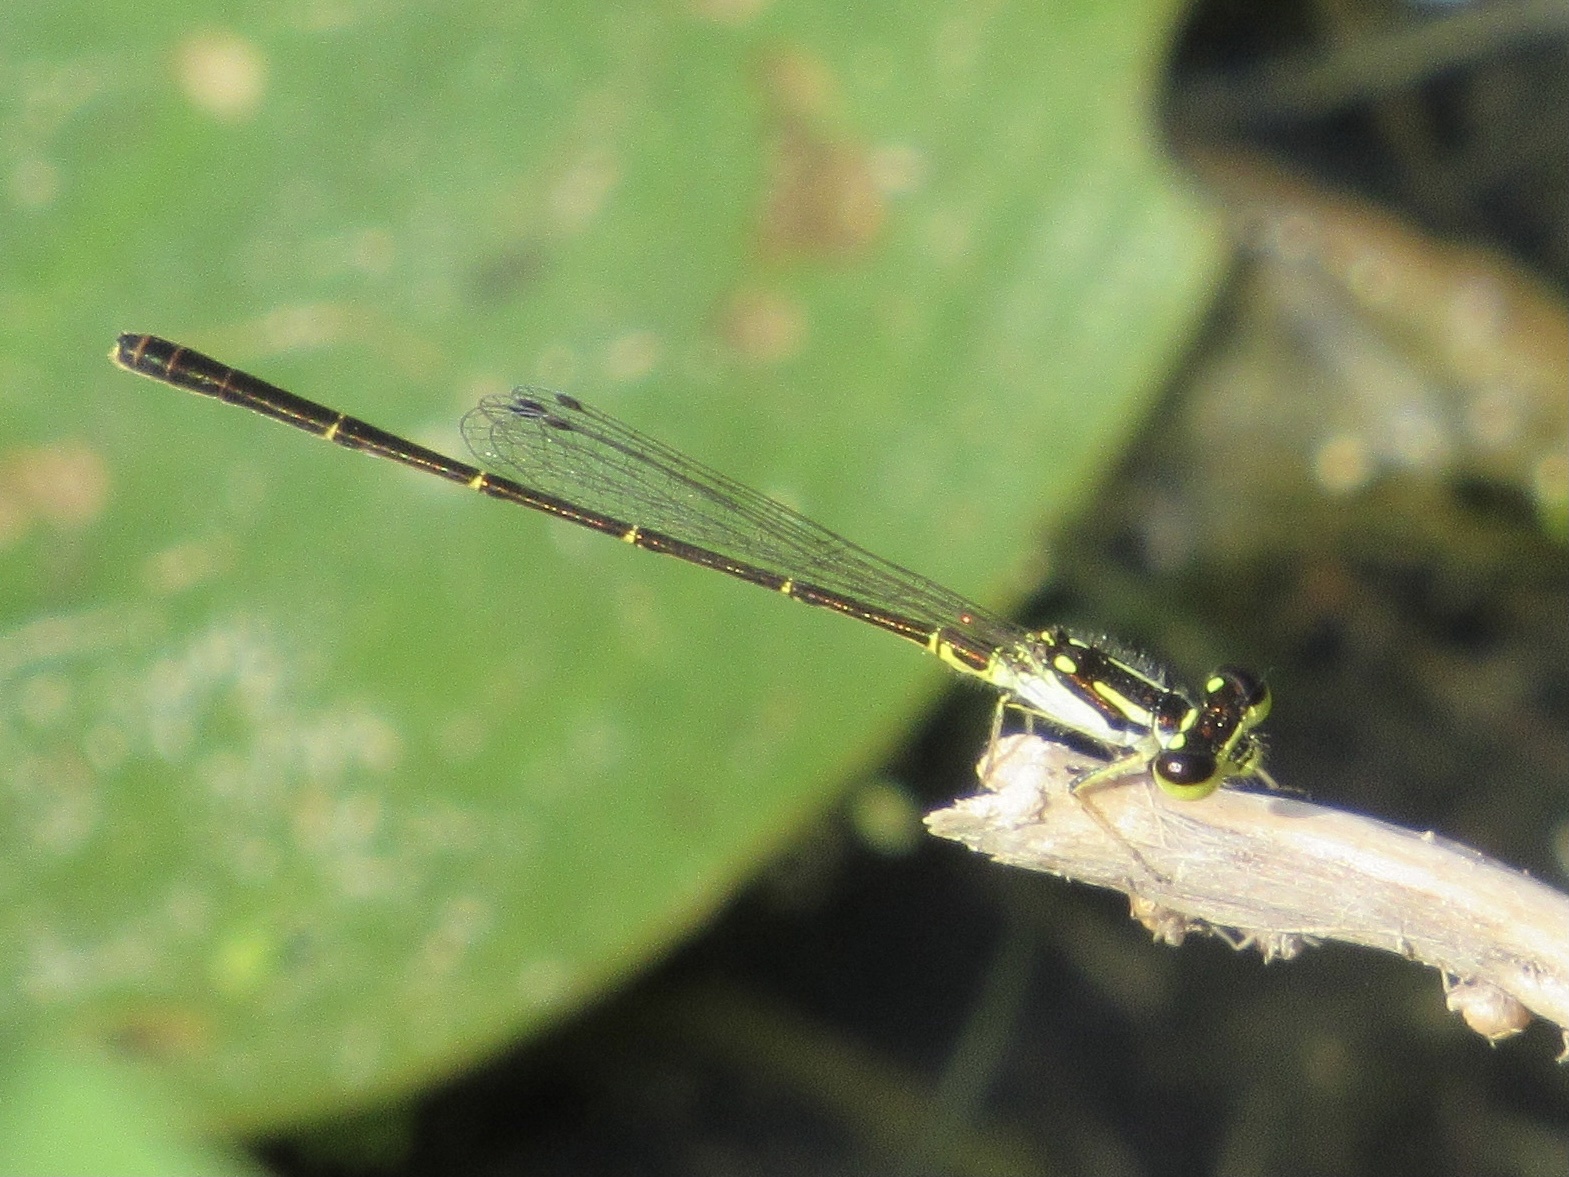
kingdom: Animalia
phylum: Arthropoda
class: Insecta
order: Odonata
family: Coenagrionidae
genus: Ischnura
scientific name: Ischnura posita
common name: Fragile forktail
